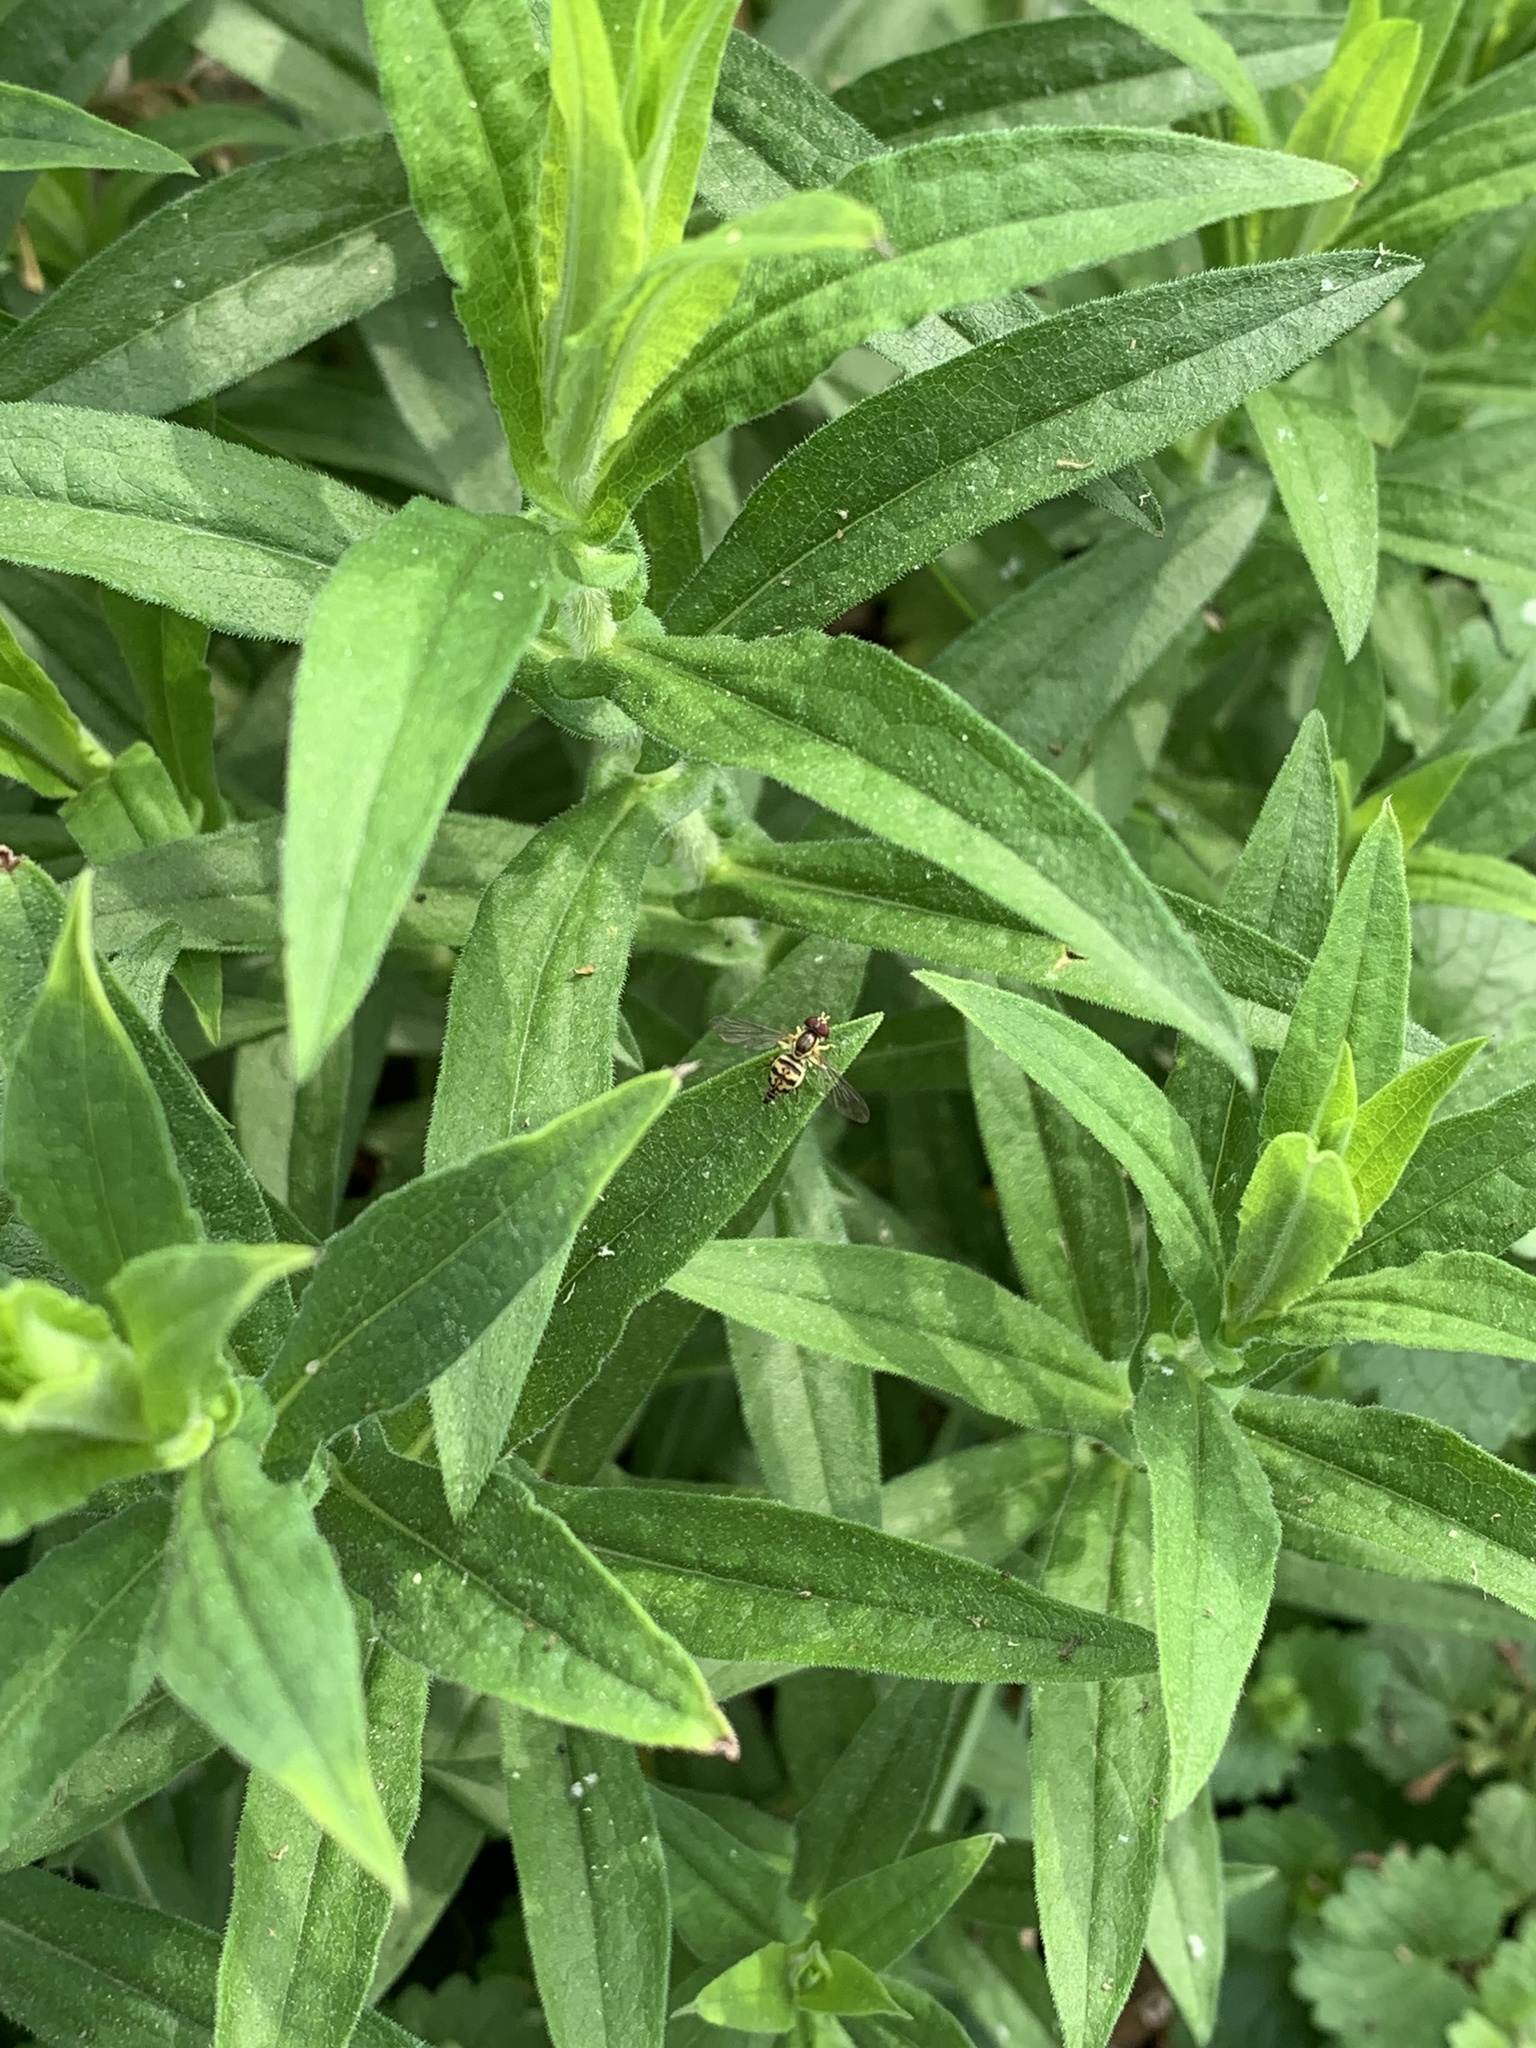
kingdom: Animalia
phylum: Arthropoda
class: Insecta
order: Diptera
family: Syrphidae
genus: Toxomerus
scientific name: Toxomerus geminatus
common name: Eastern calligrapher
